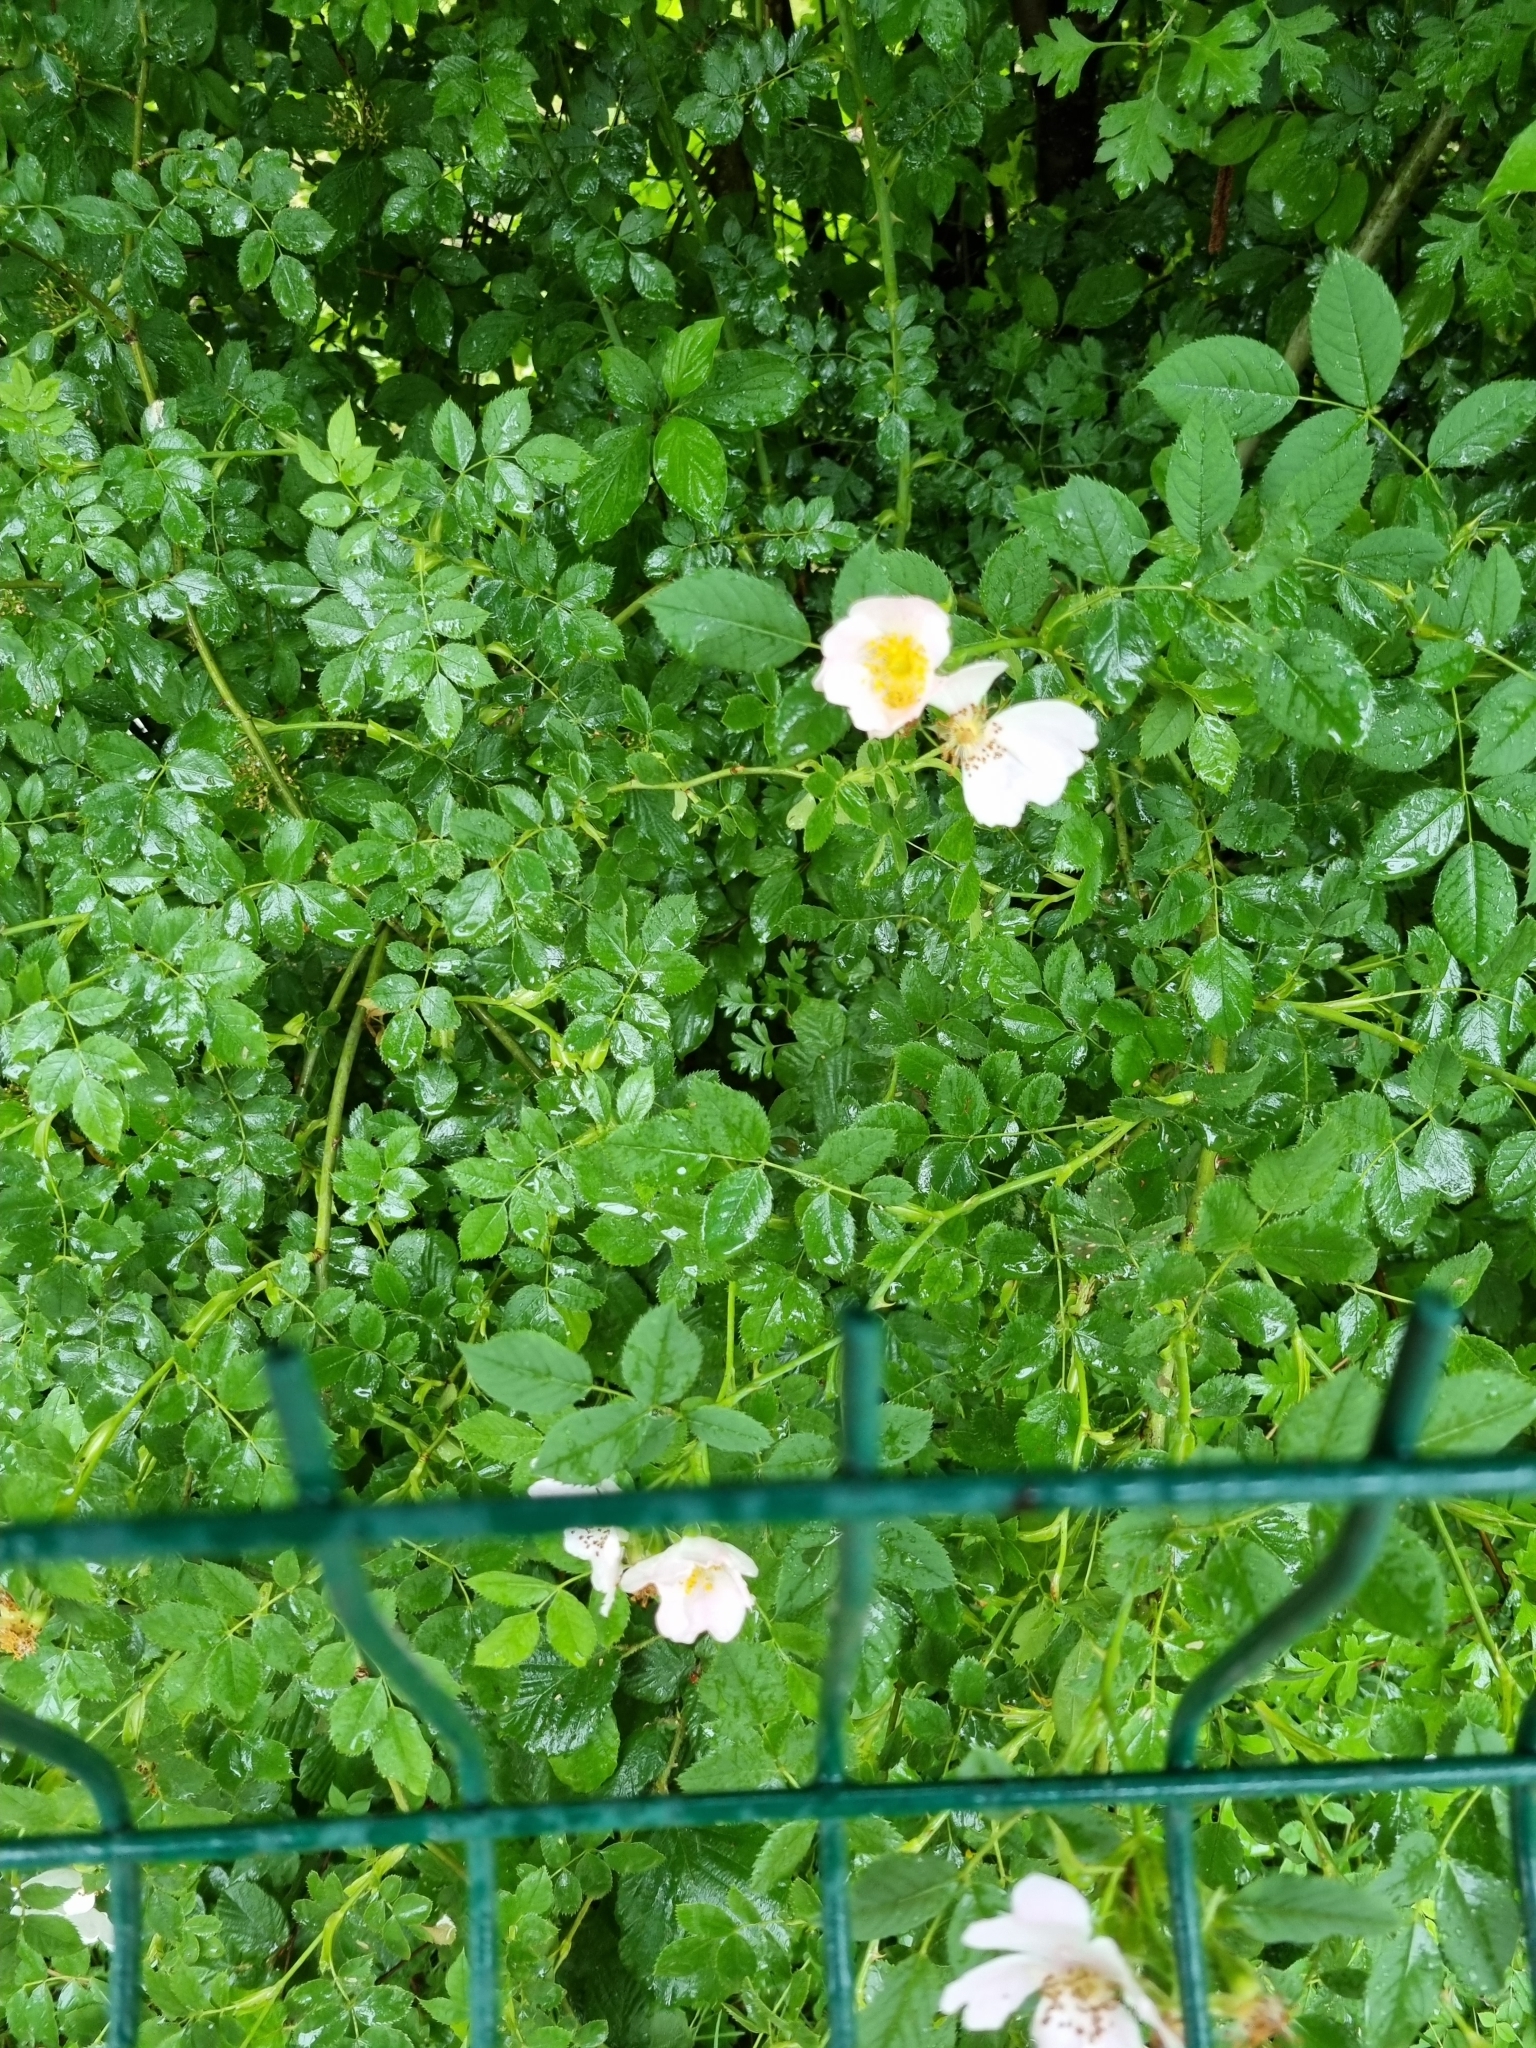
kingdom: Plantae
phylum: Tracheophyta
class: Magnoliopsida
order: Rosales
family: Rosaceae
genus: Rosa
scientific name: Rosa canina
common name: Dog rose
